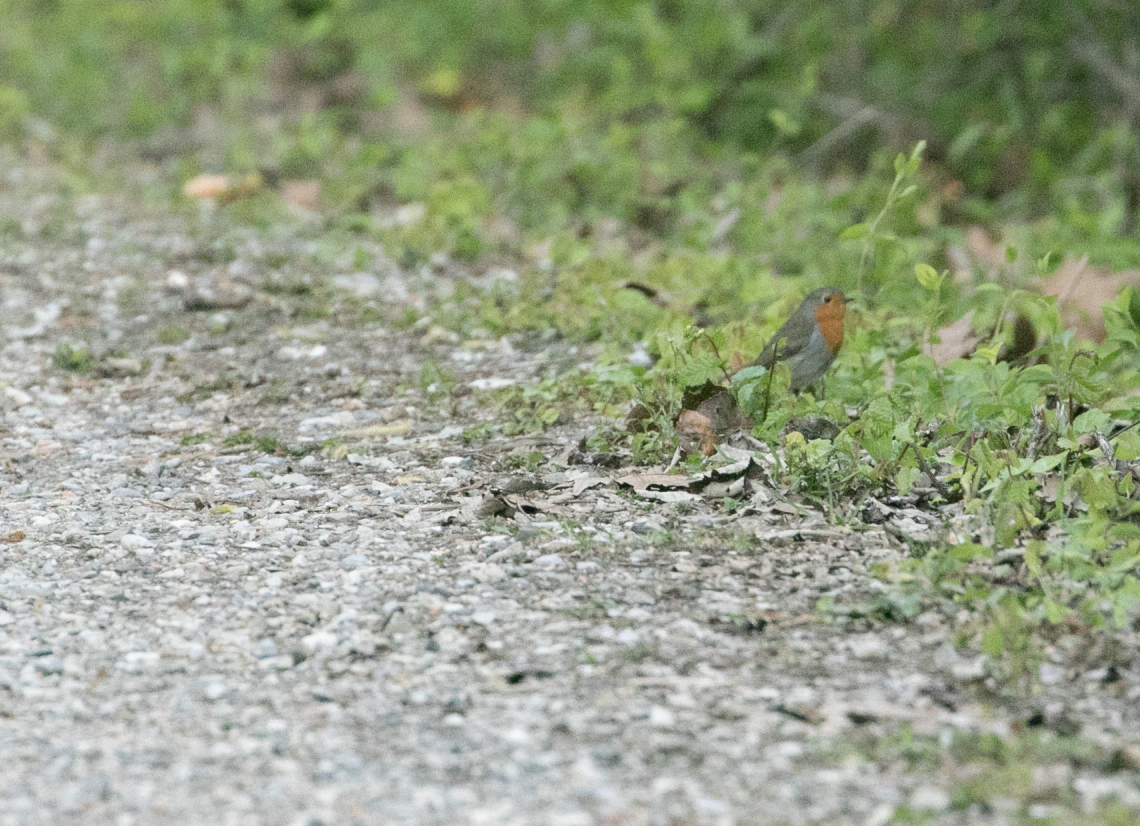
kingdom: Animalia
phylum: Chordata
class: Aves
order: Passeriformes
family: Muscicapidae
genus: Erithacus
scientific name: Erithacus rubecula
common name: European robin
